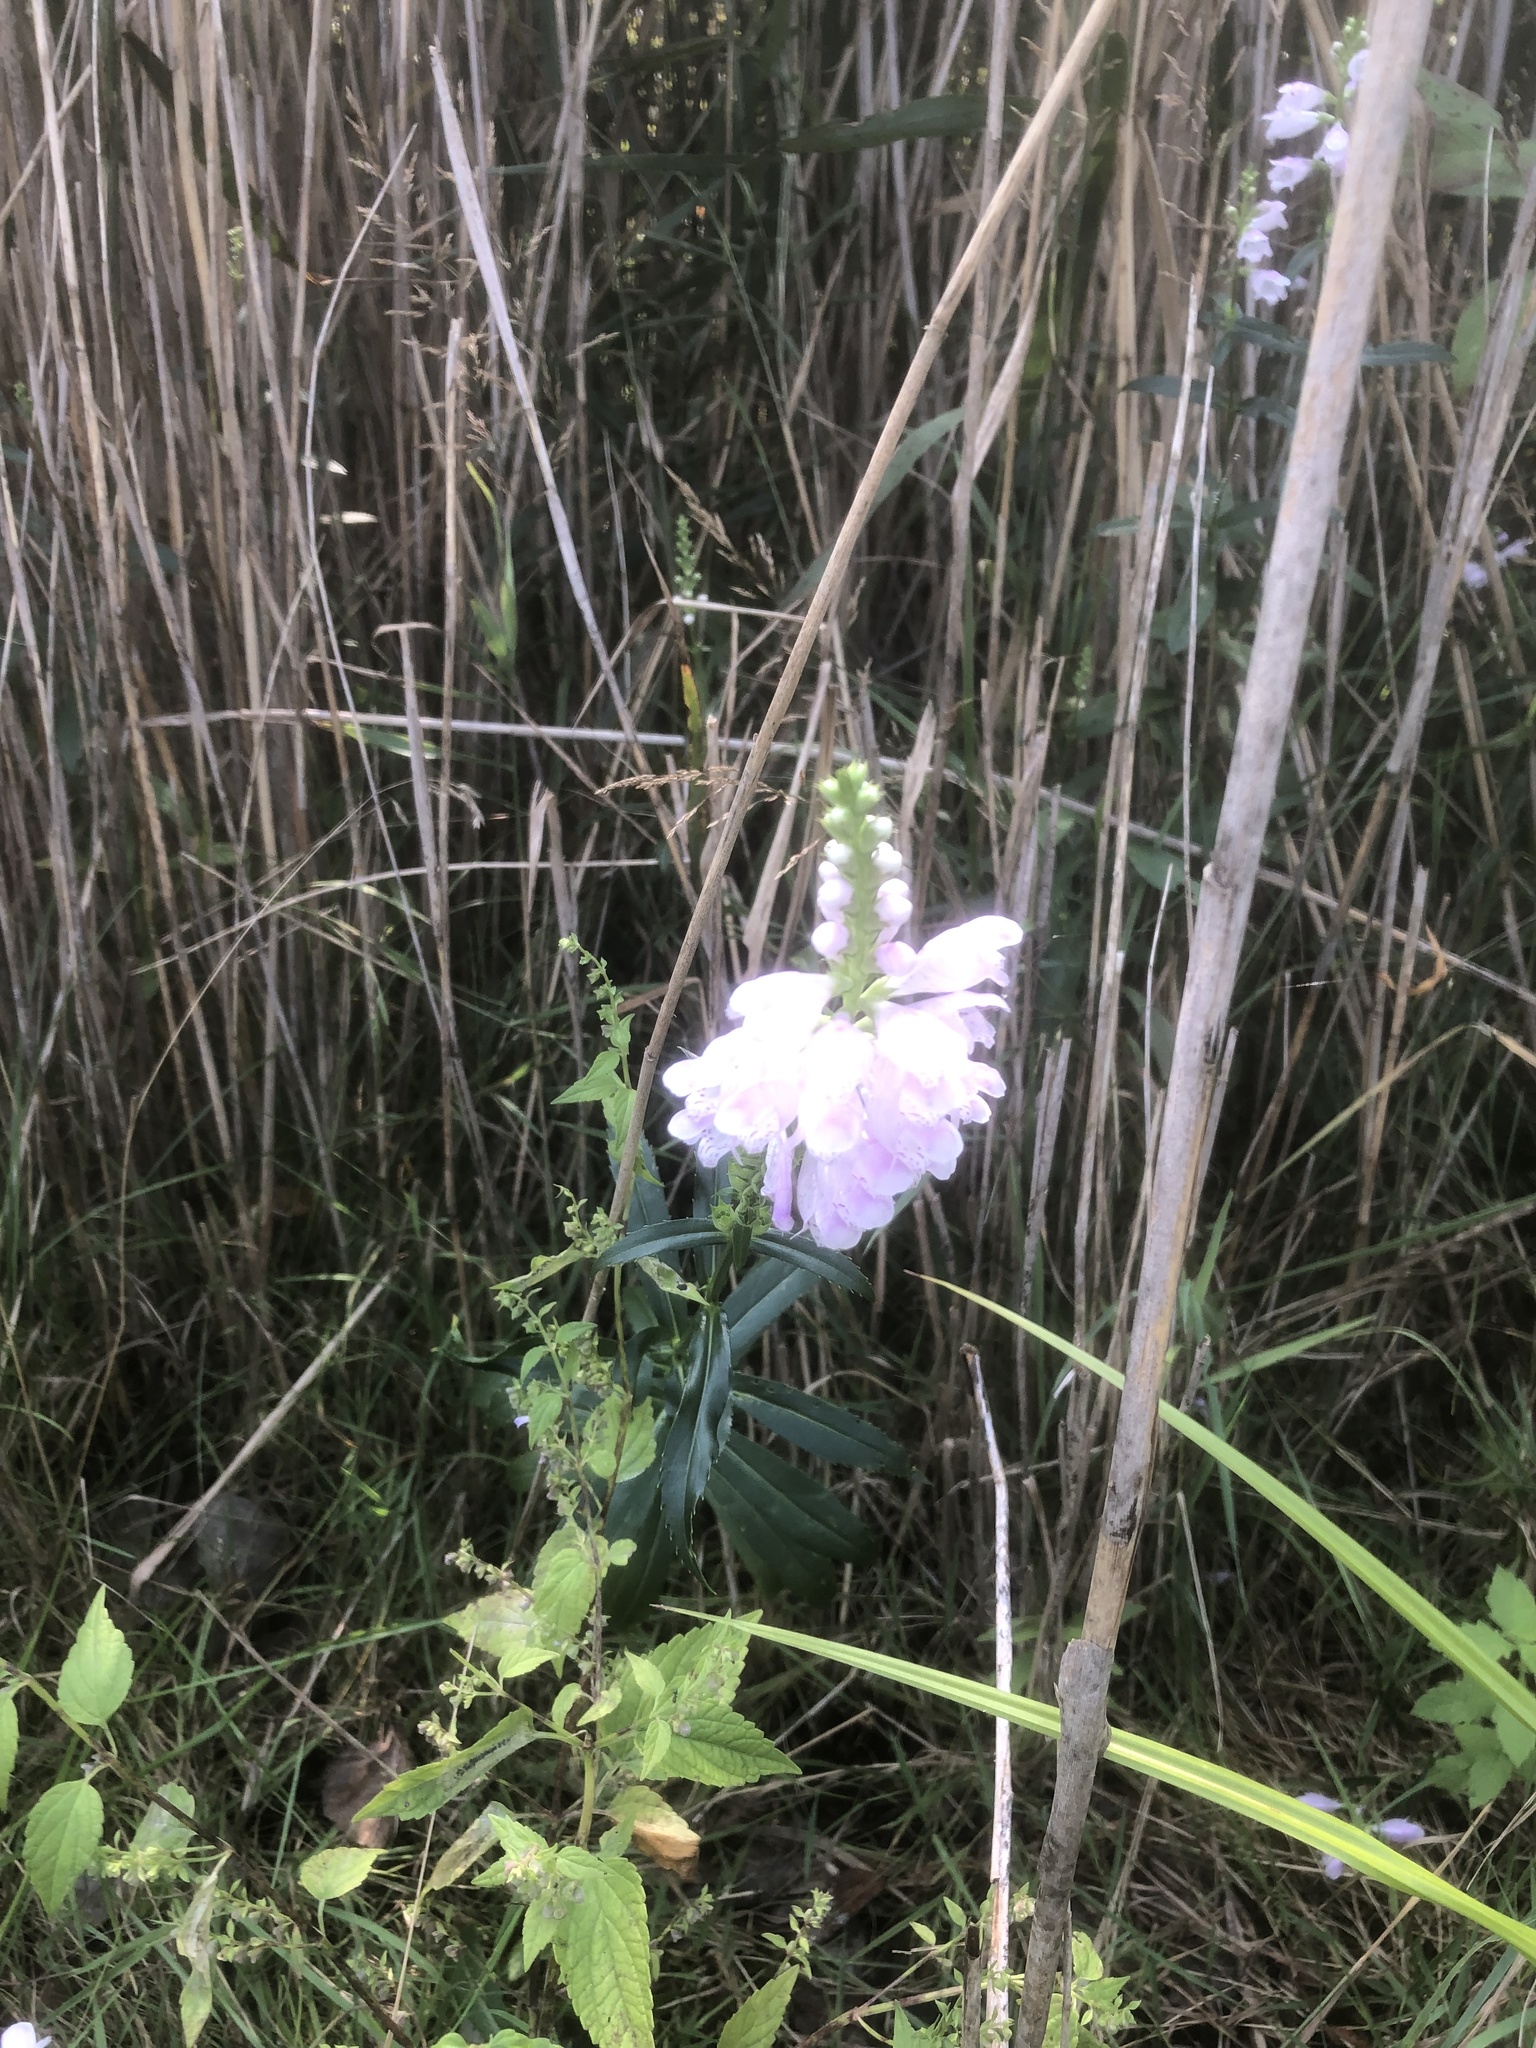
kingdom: Plantae
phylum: Tracheophyta
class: Magnoliopsida
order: Lamiales
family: Lamiaceae
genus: Physostegia
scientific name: Physostegia virginiana
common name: Obedient-plant
